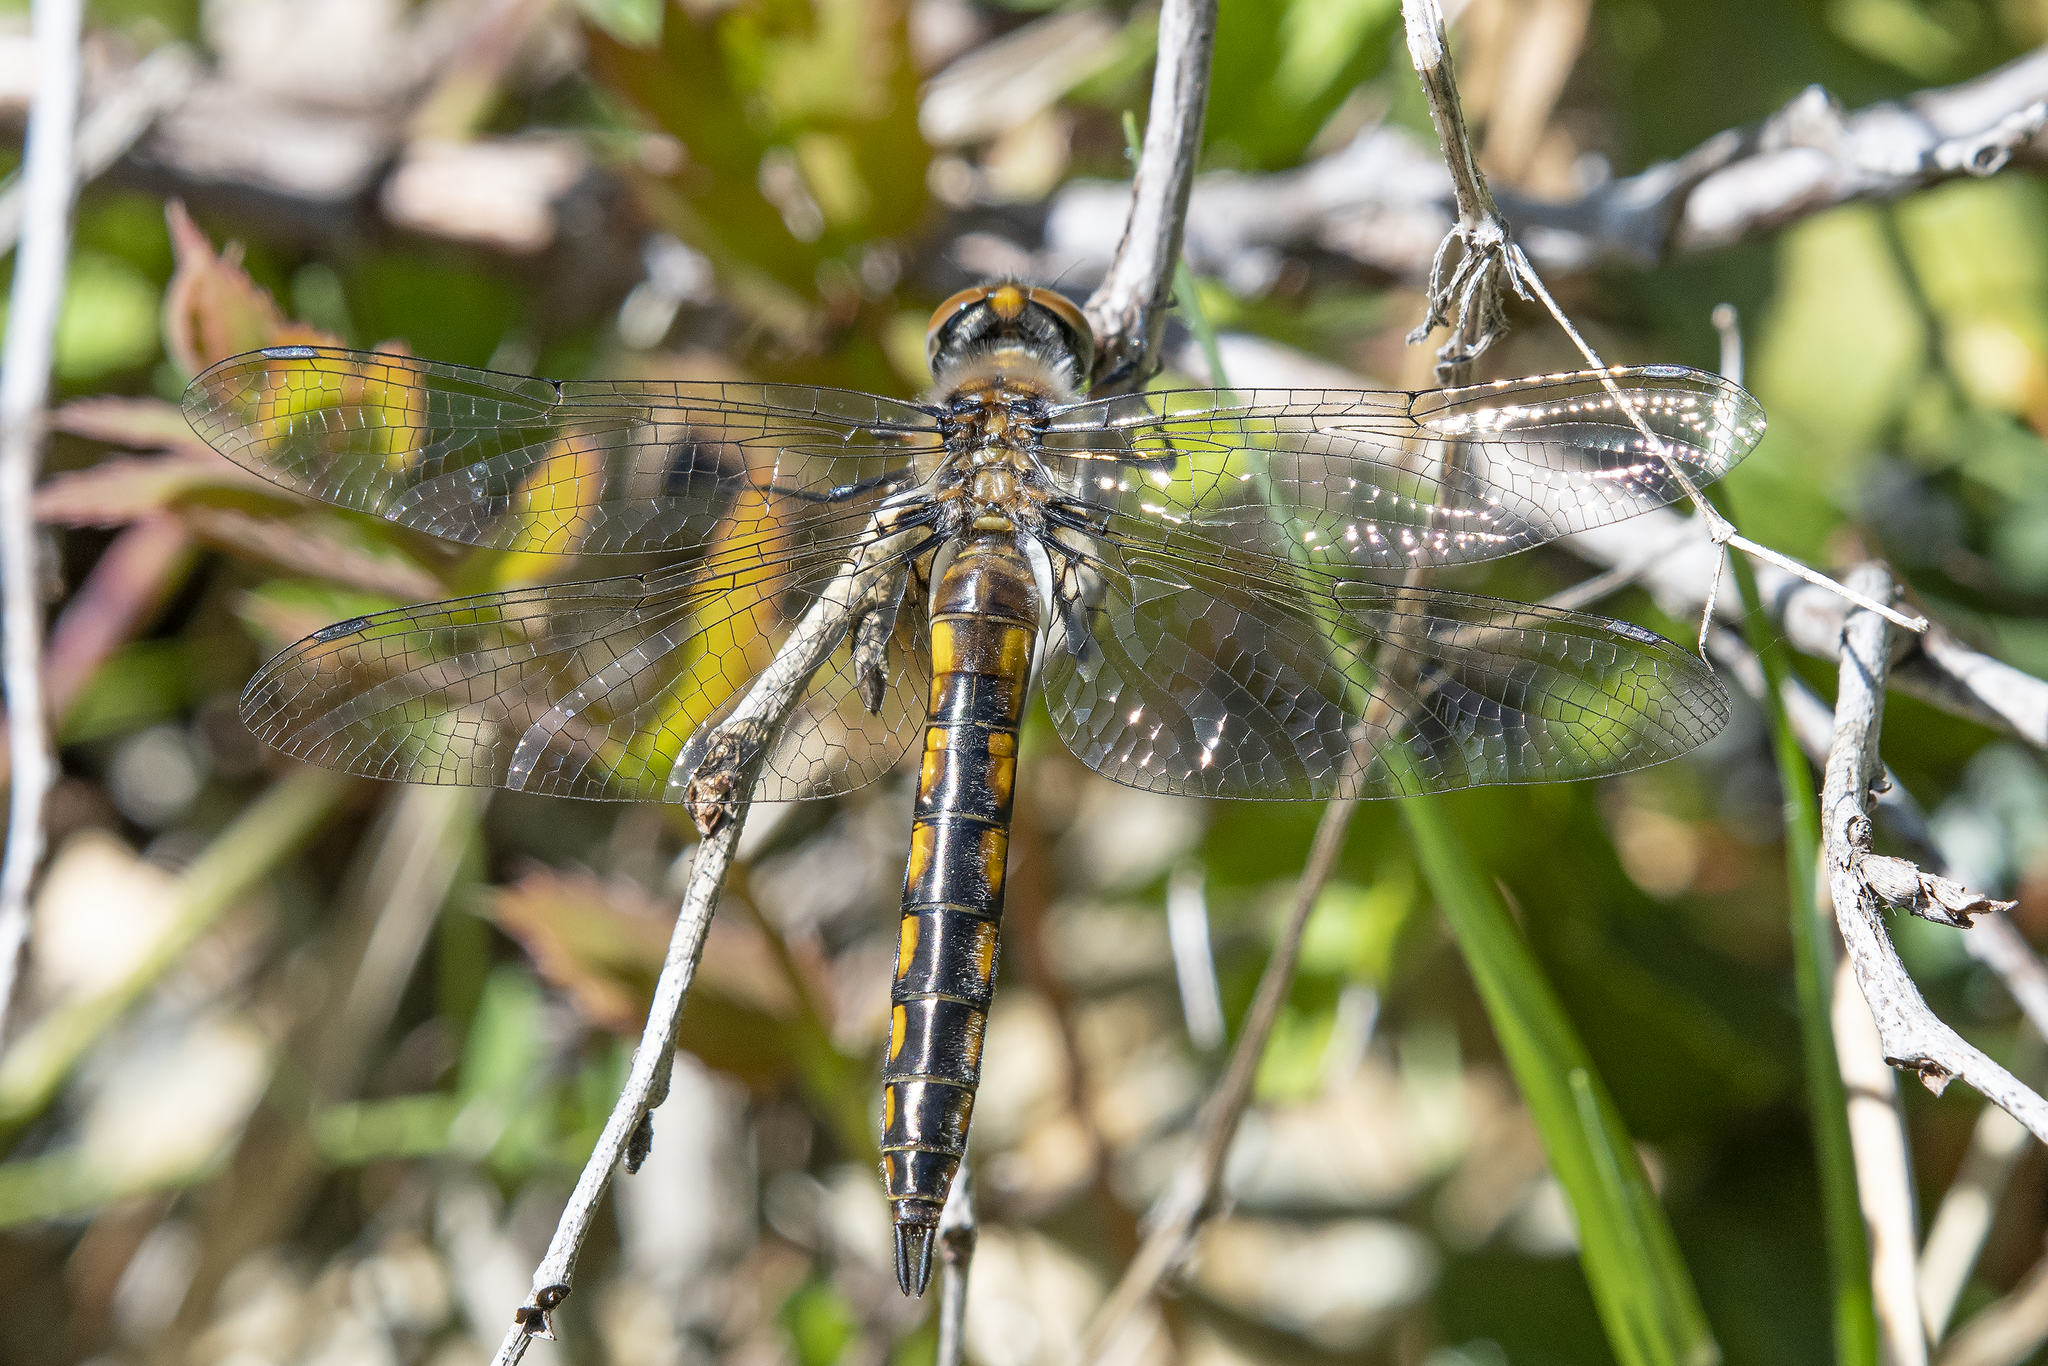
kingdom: Animalia
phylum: Arthropoda
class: Insecta
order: Odonata
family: Corduliidae
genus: Epitheca
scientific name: Epitheca spinigera
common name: Spiny baskettail
